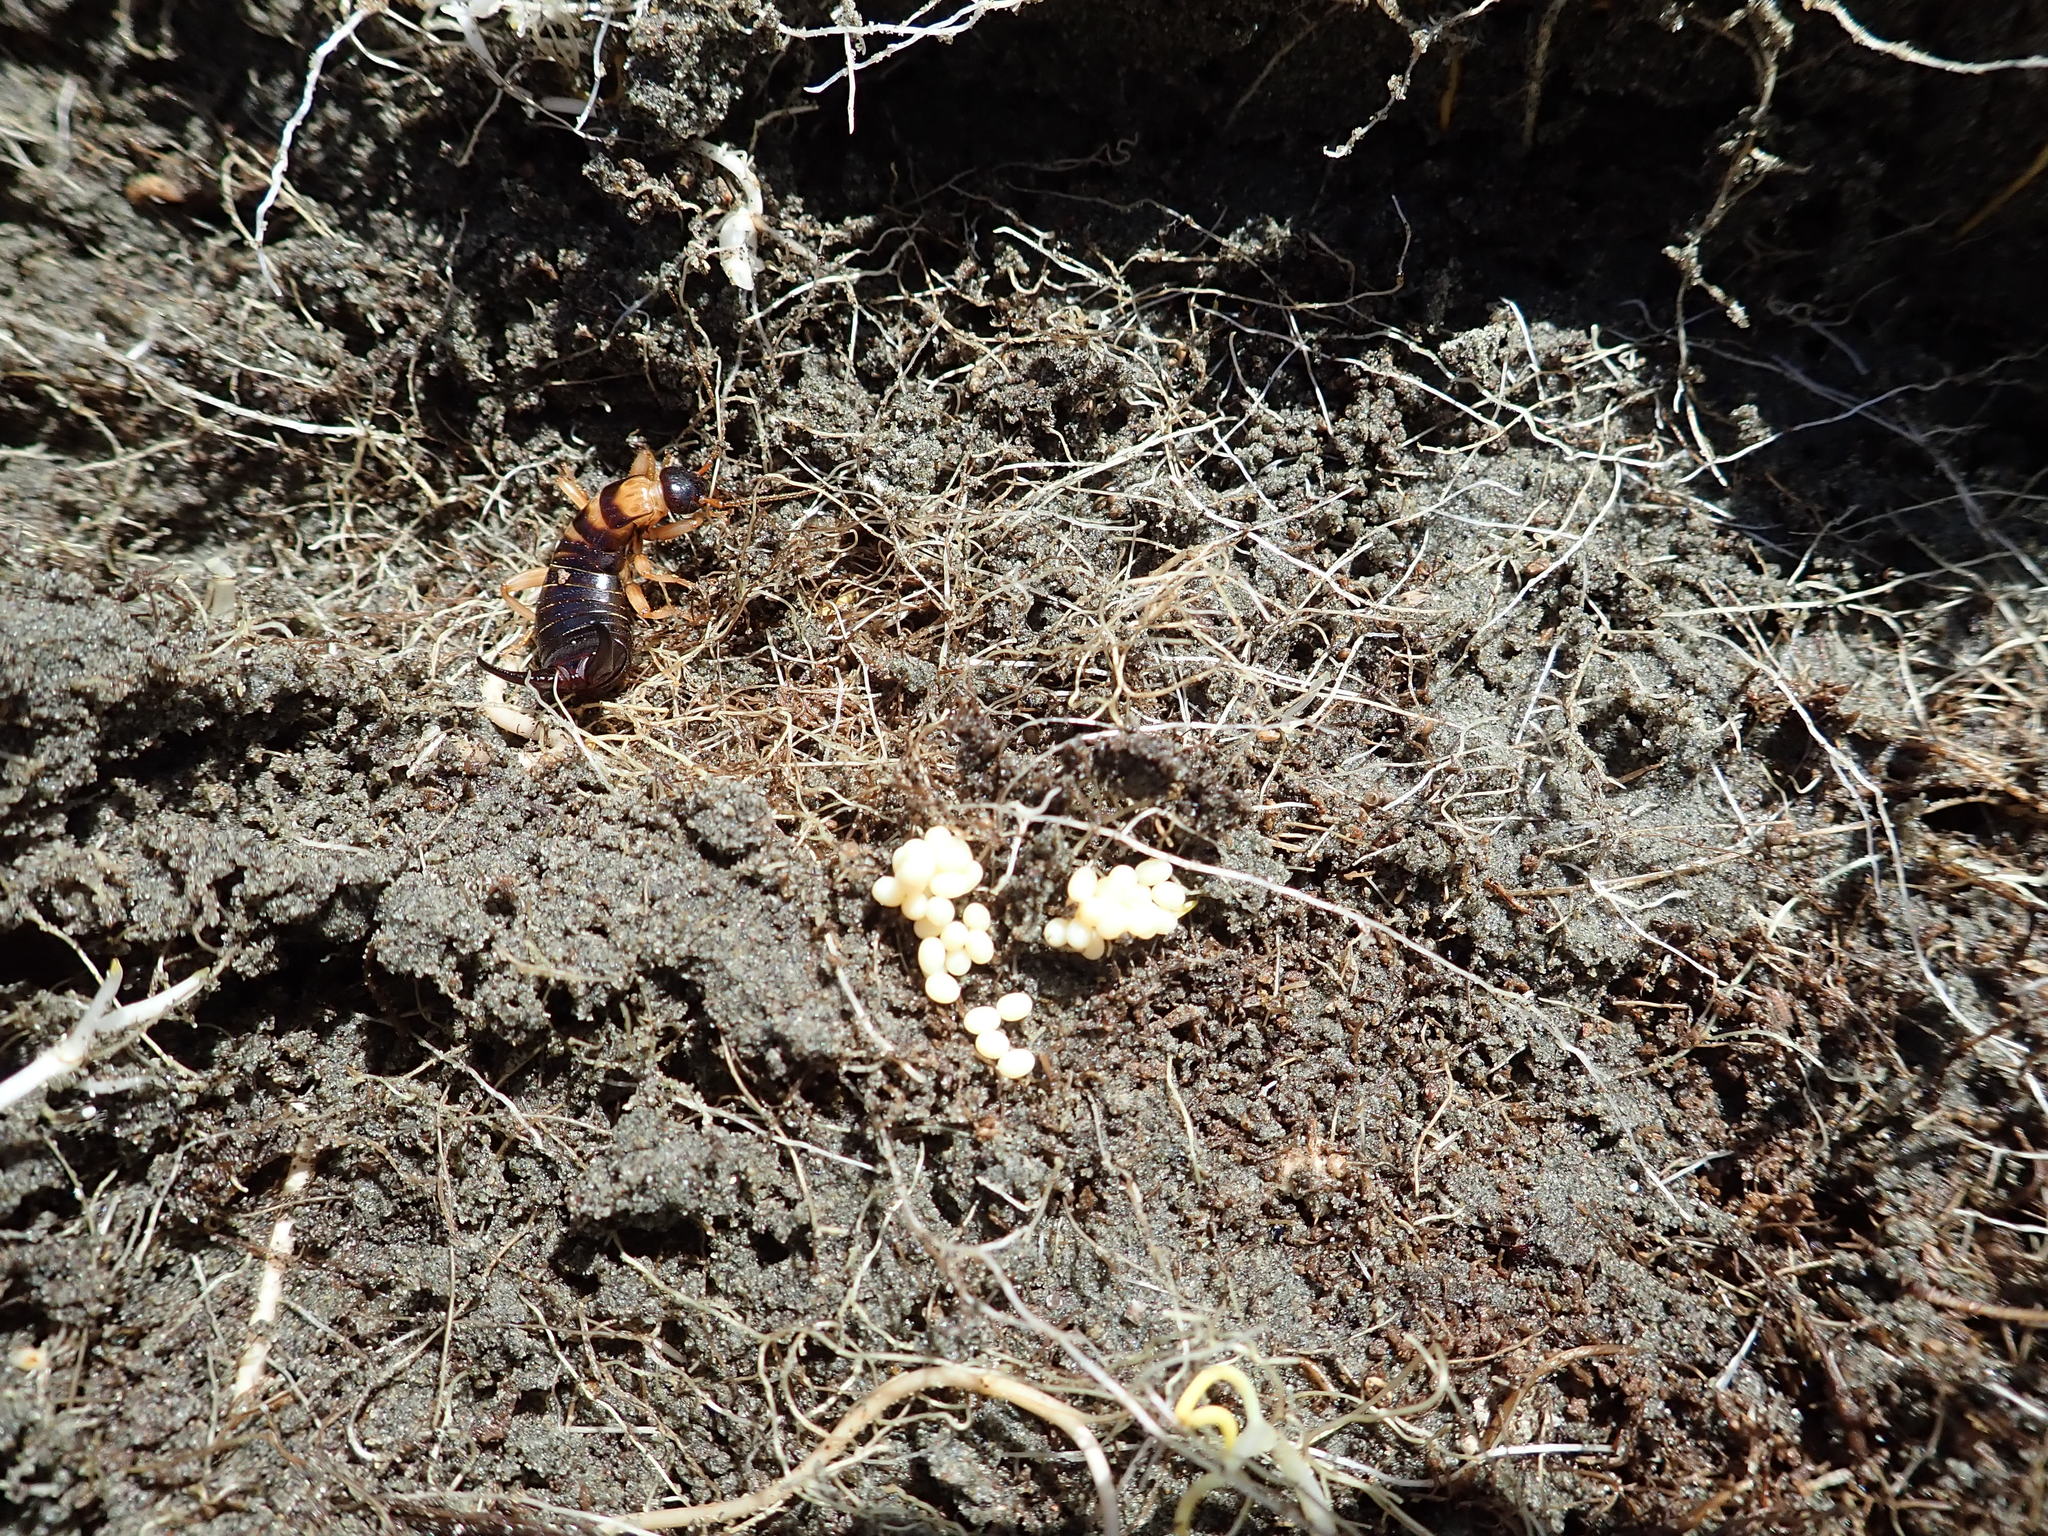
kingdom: Animalia
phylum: Arthropoda
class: Insecta
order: Dermaptera
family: Anisolabididae
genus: Anisolabis
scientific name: Anisolabis littorea
